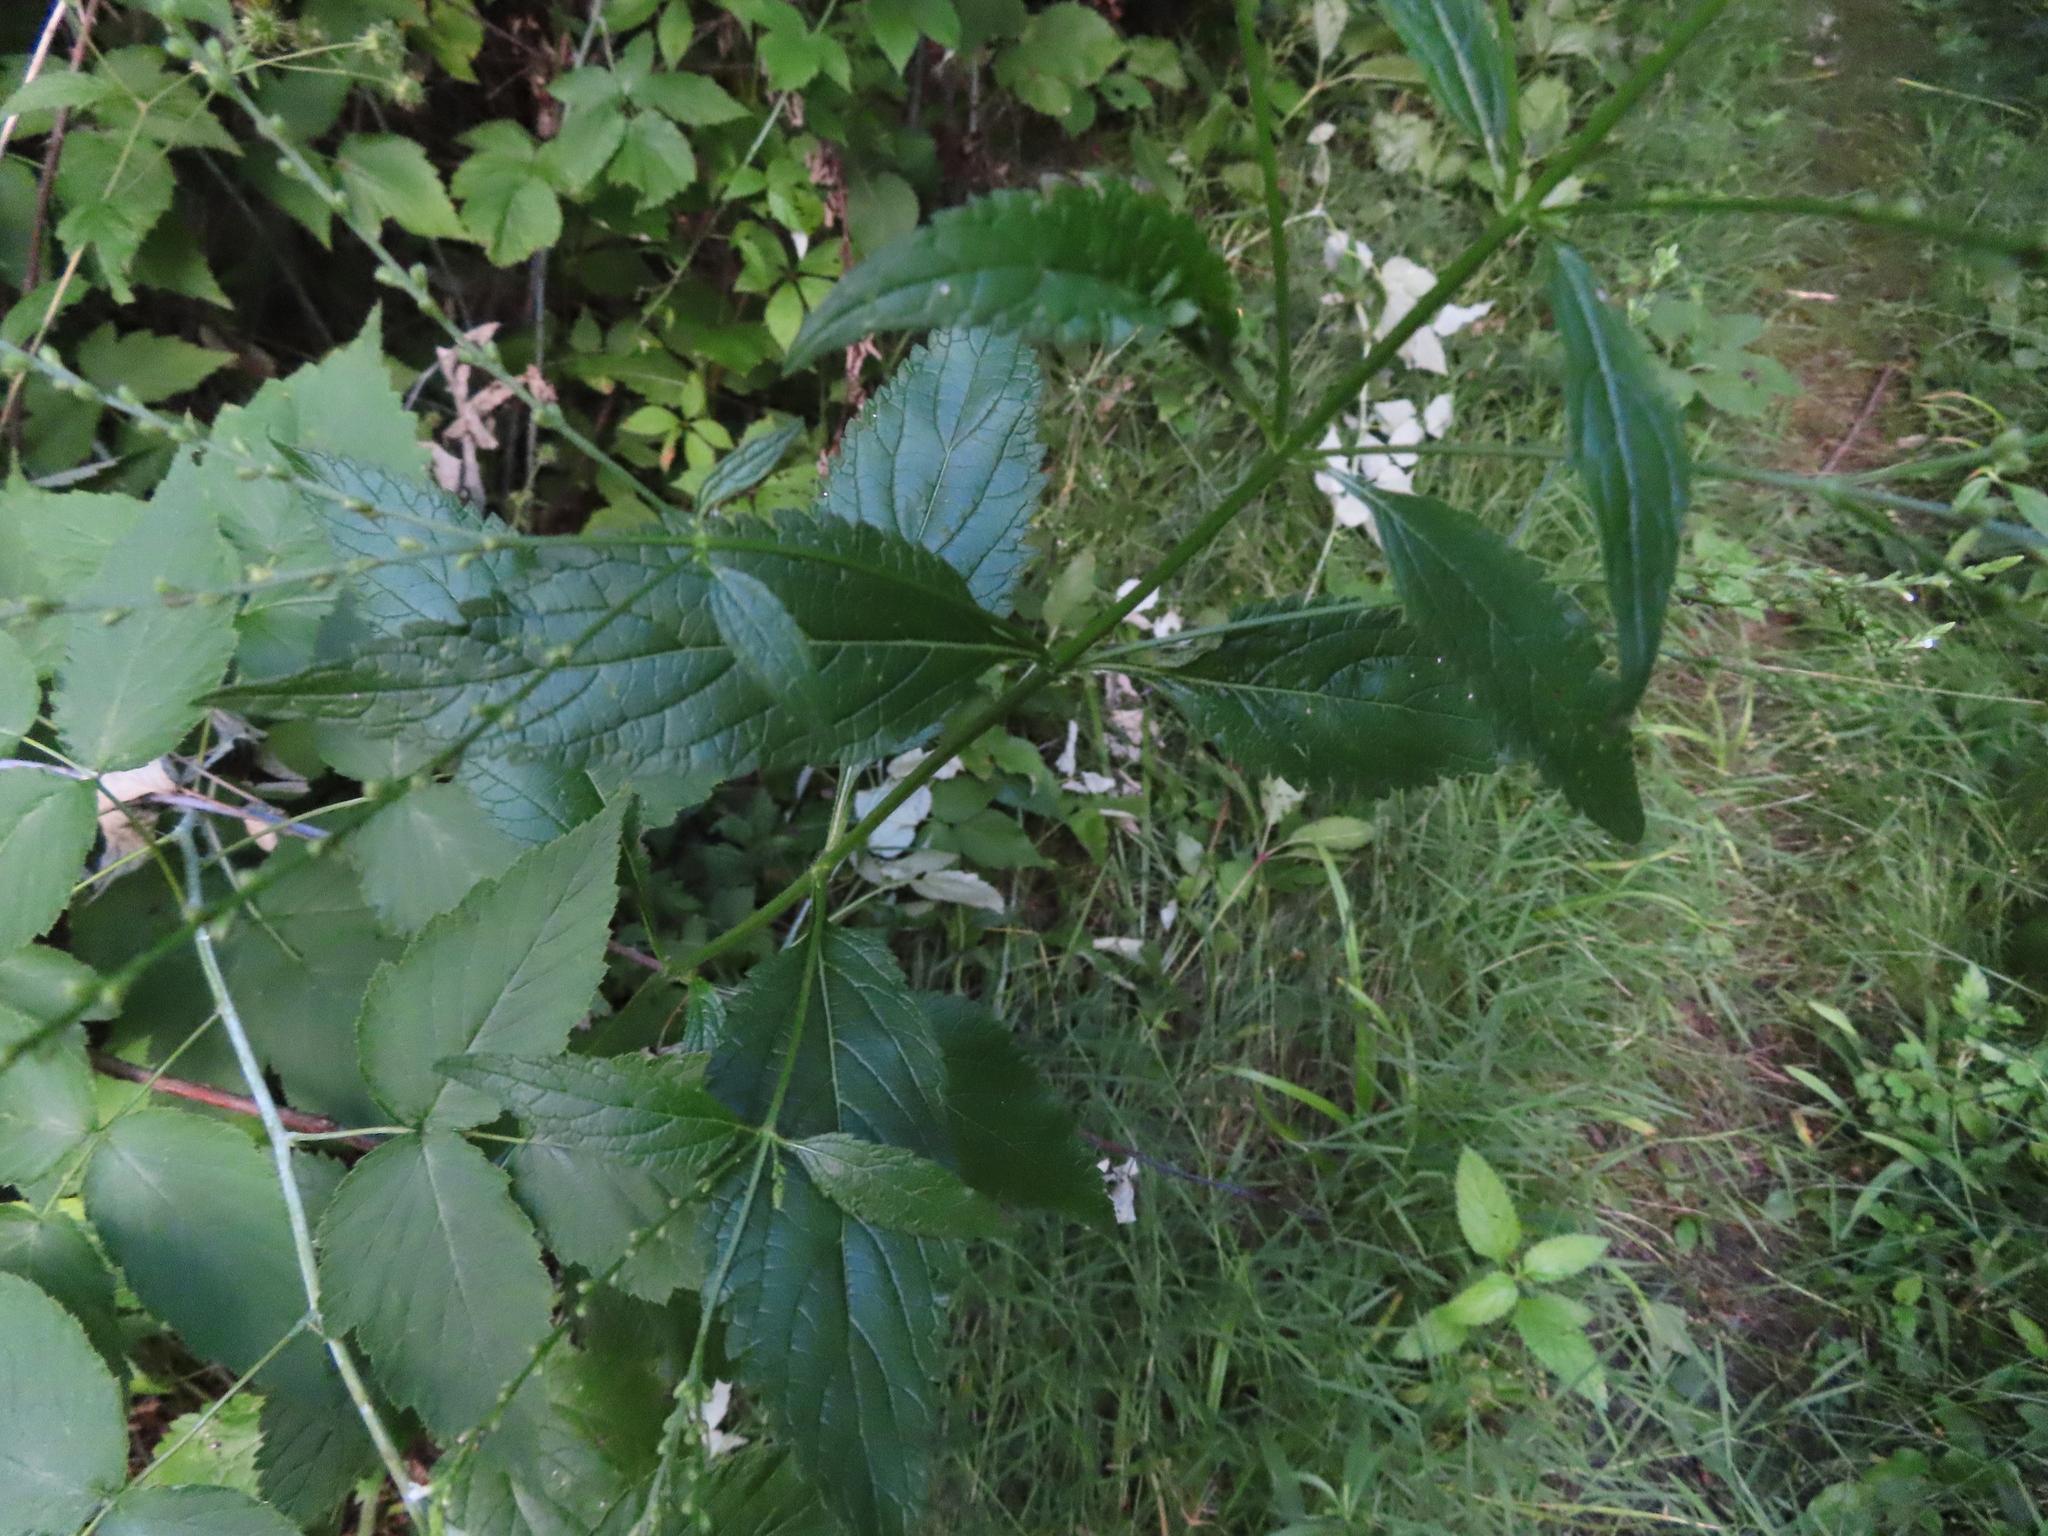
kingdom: Plantae
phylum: Tracheophyta
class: Magnoliopsida
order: Lamiales
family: Verbenaceae
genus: Verbena
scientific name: Verbena urticifolia
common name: Nettle-leaved vervain
